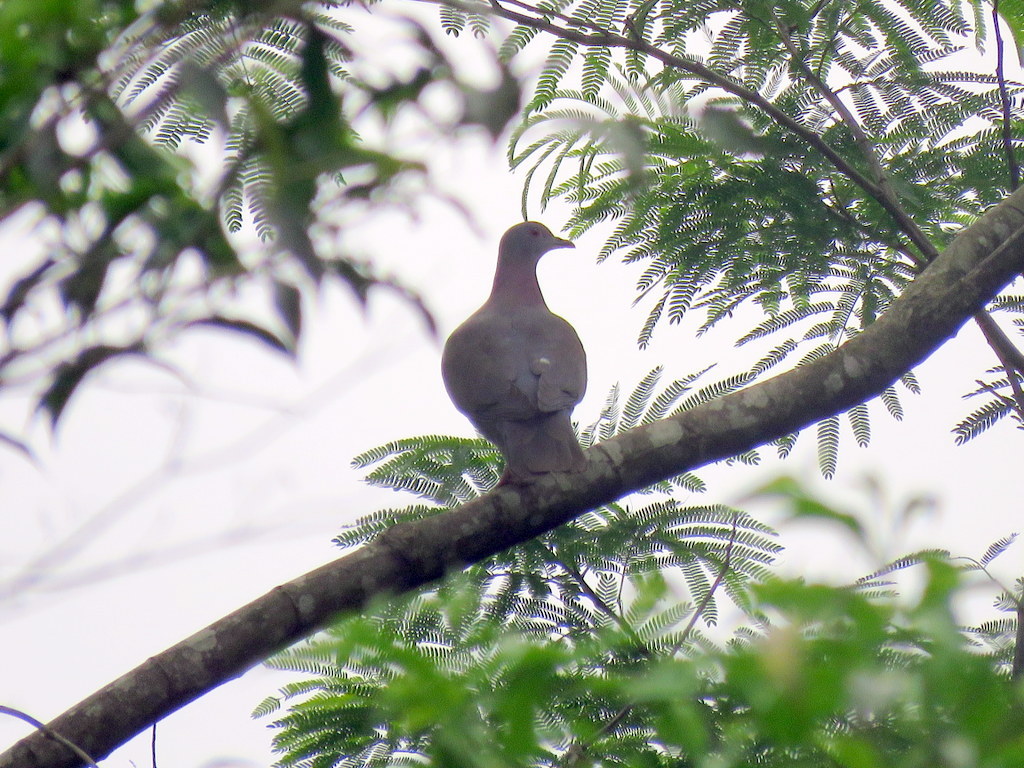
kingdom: Animalia
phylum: Chordata
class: Aves
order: Columbiformes
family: Columbidae
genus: Patagioenas
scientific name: Patagioenas cayennensis
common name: Pale-vented pigeon
